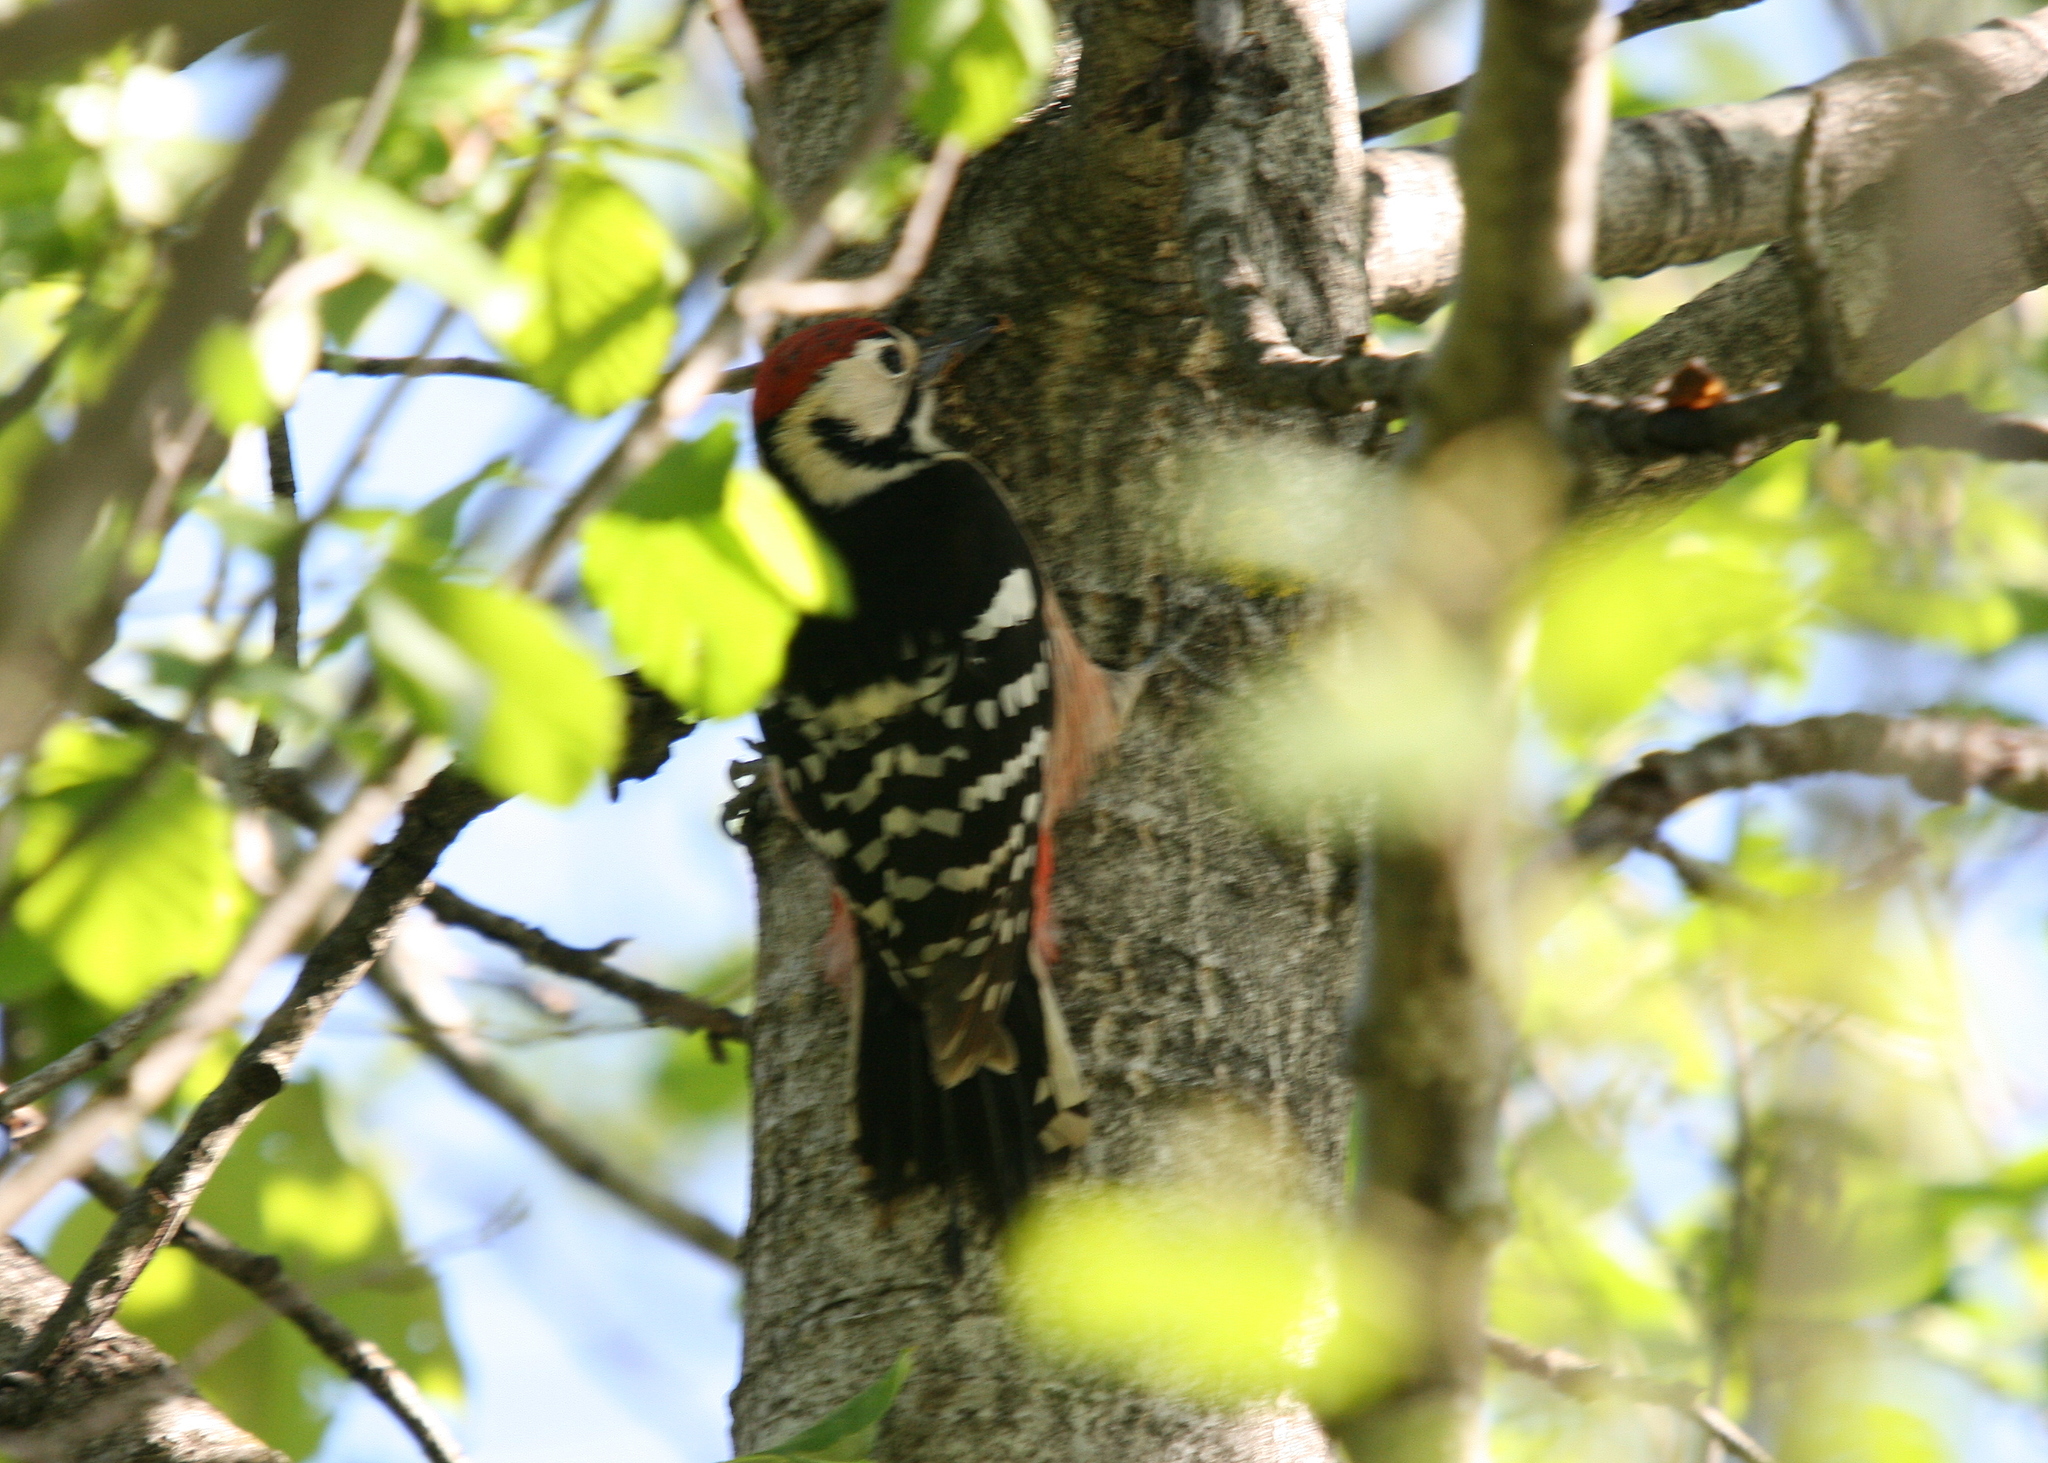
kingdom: Animalia
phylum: Chordata
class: Aves
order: Piciformes
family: Picidae
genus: Dendrocopos
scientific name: Dendrocopos leucotos
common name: White-backed woodpecker
